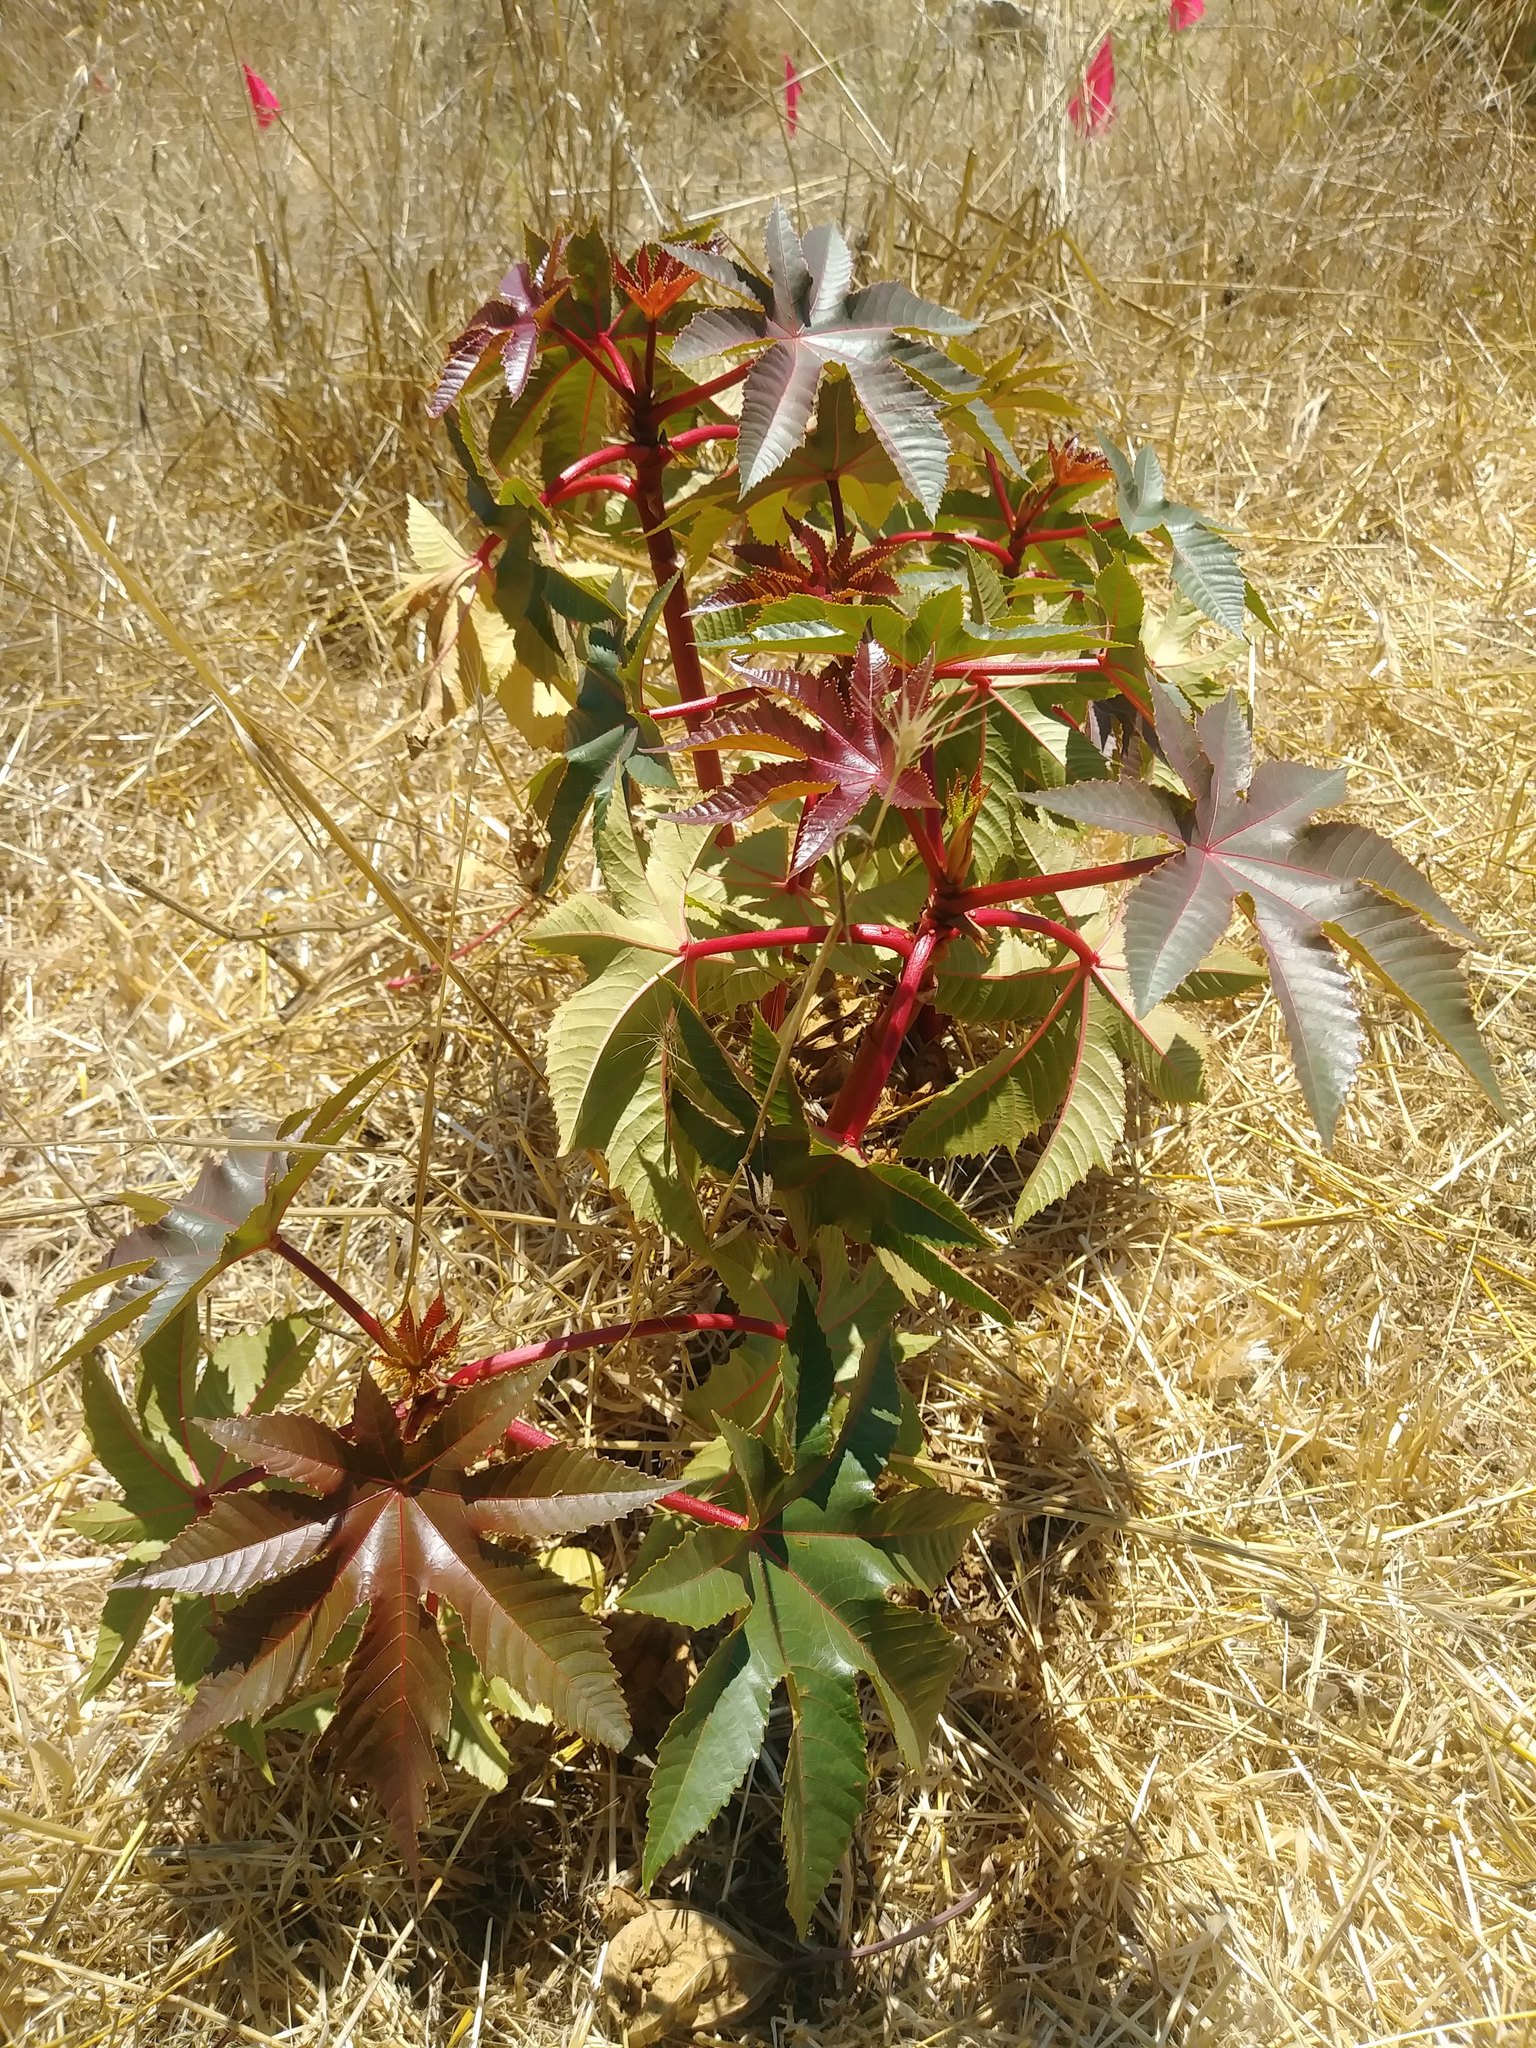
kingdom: Plantae
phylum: Tracheophyta
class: Magnoliopsida
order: Malpighiales
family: Euphorbiaceae
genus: Ricinus
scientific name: Ricinus communis
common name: Castor-oil-plant
